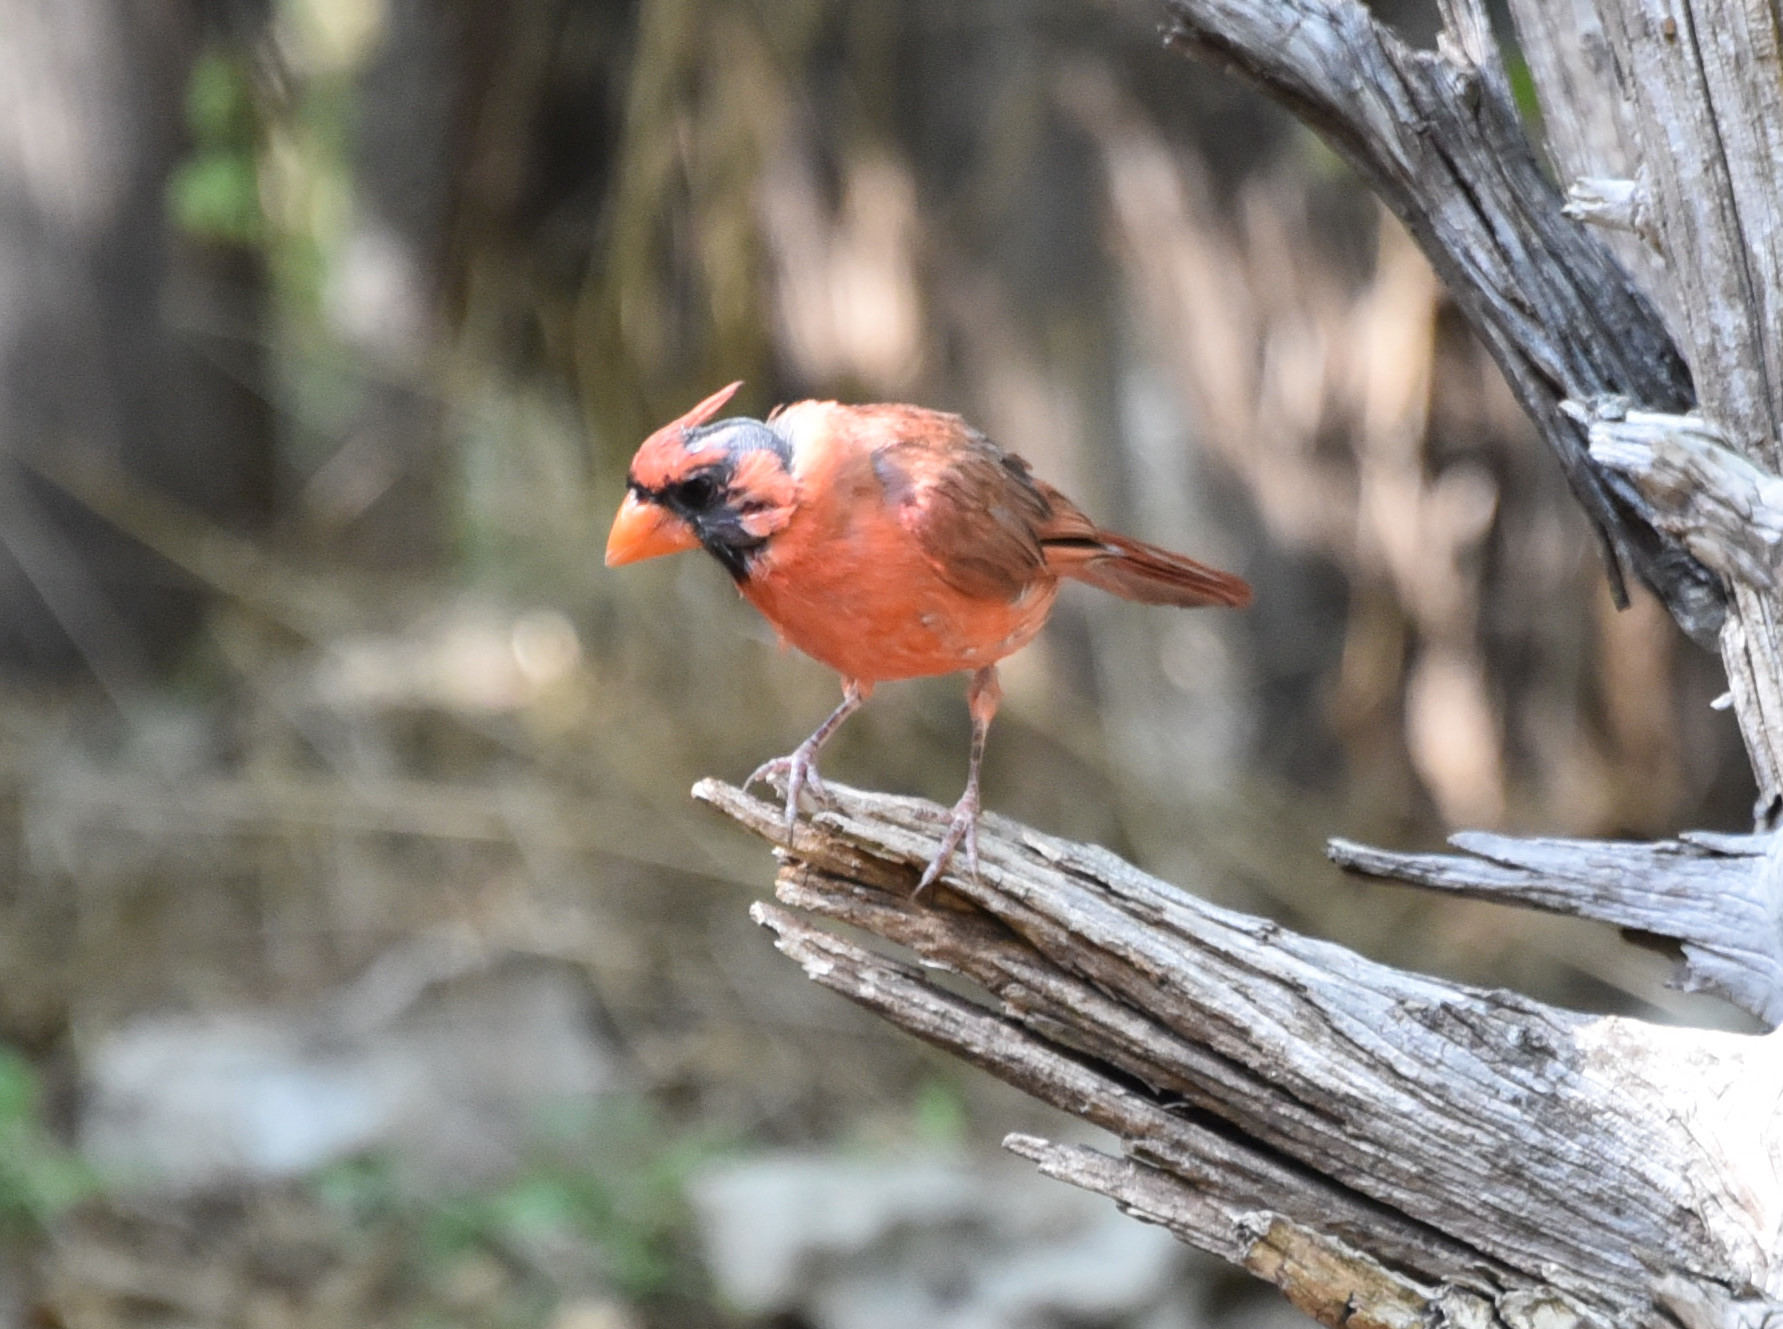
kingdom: Animalia
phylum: Chordata
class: Aves
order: Passeriformes
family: Cardinalidae
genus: Cardinalis
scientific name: Cardinalis cardinalis
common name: Northern cardinal
